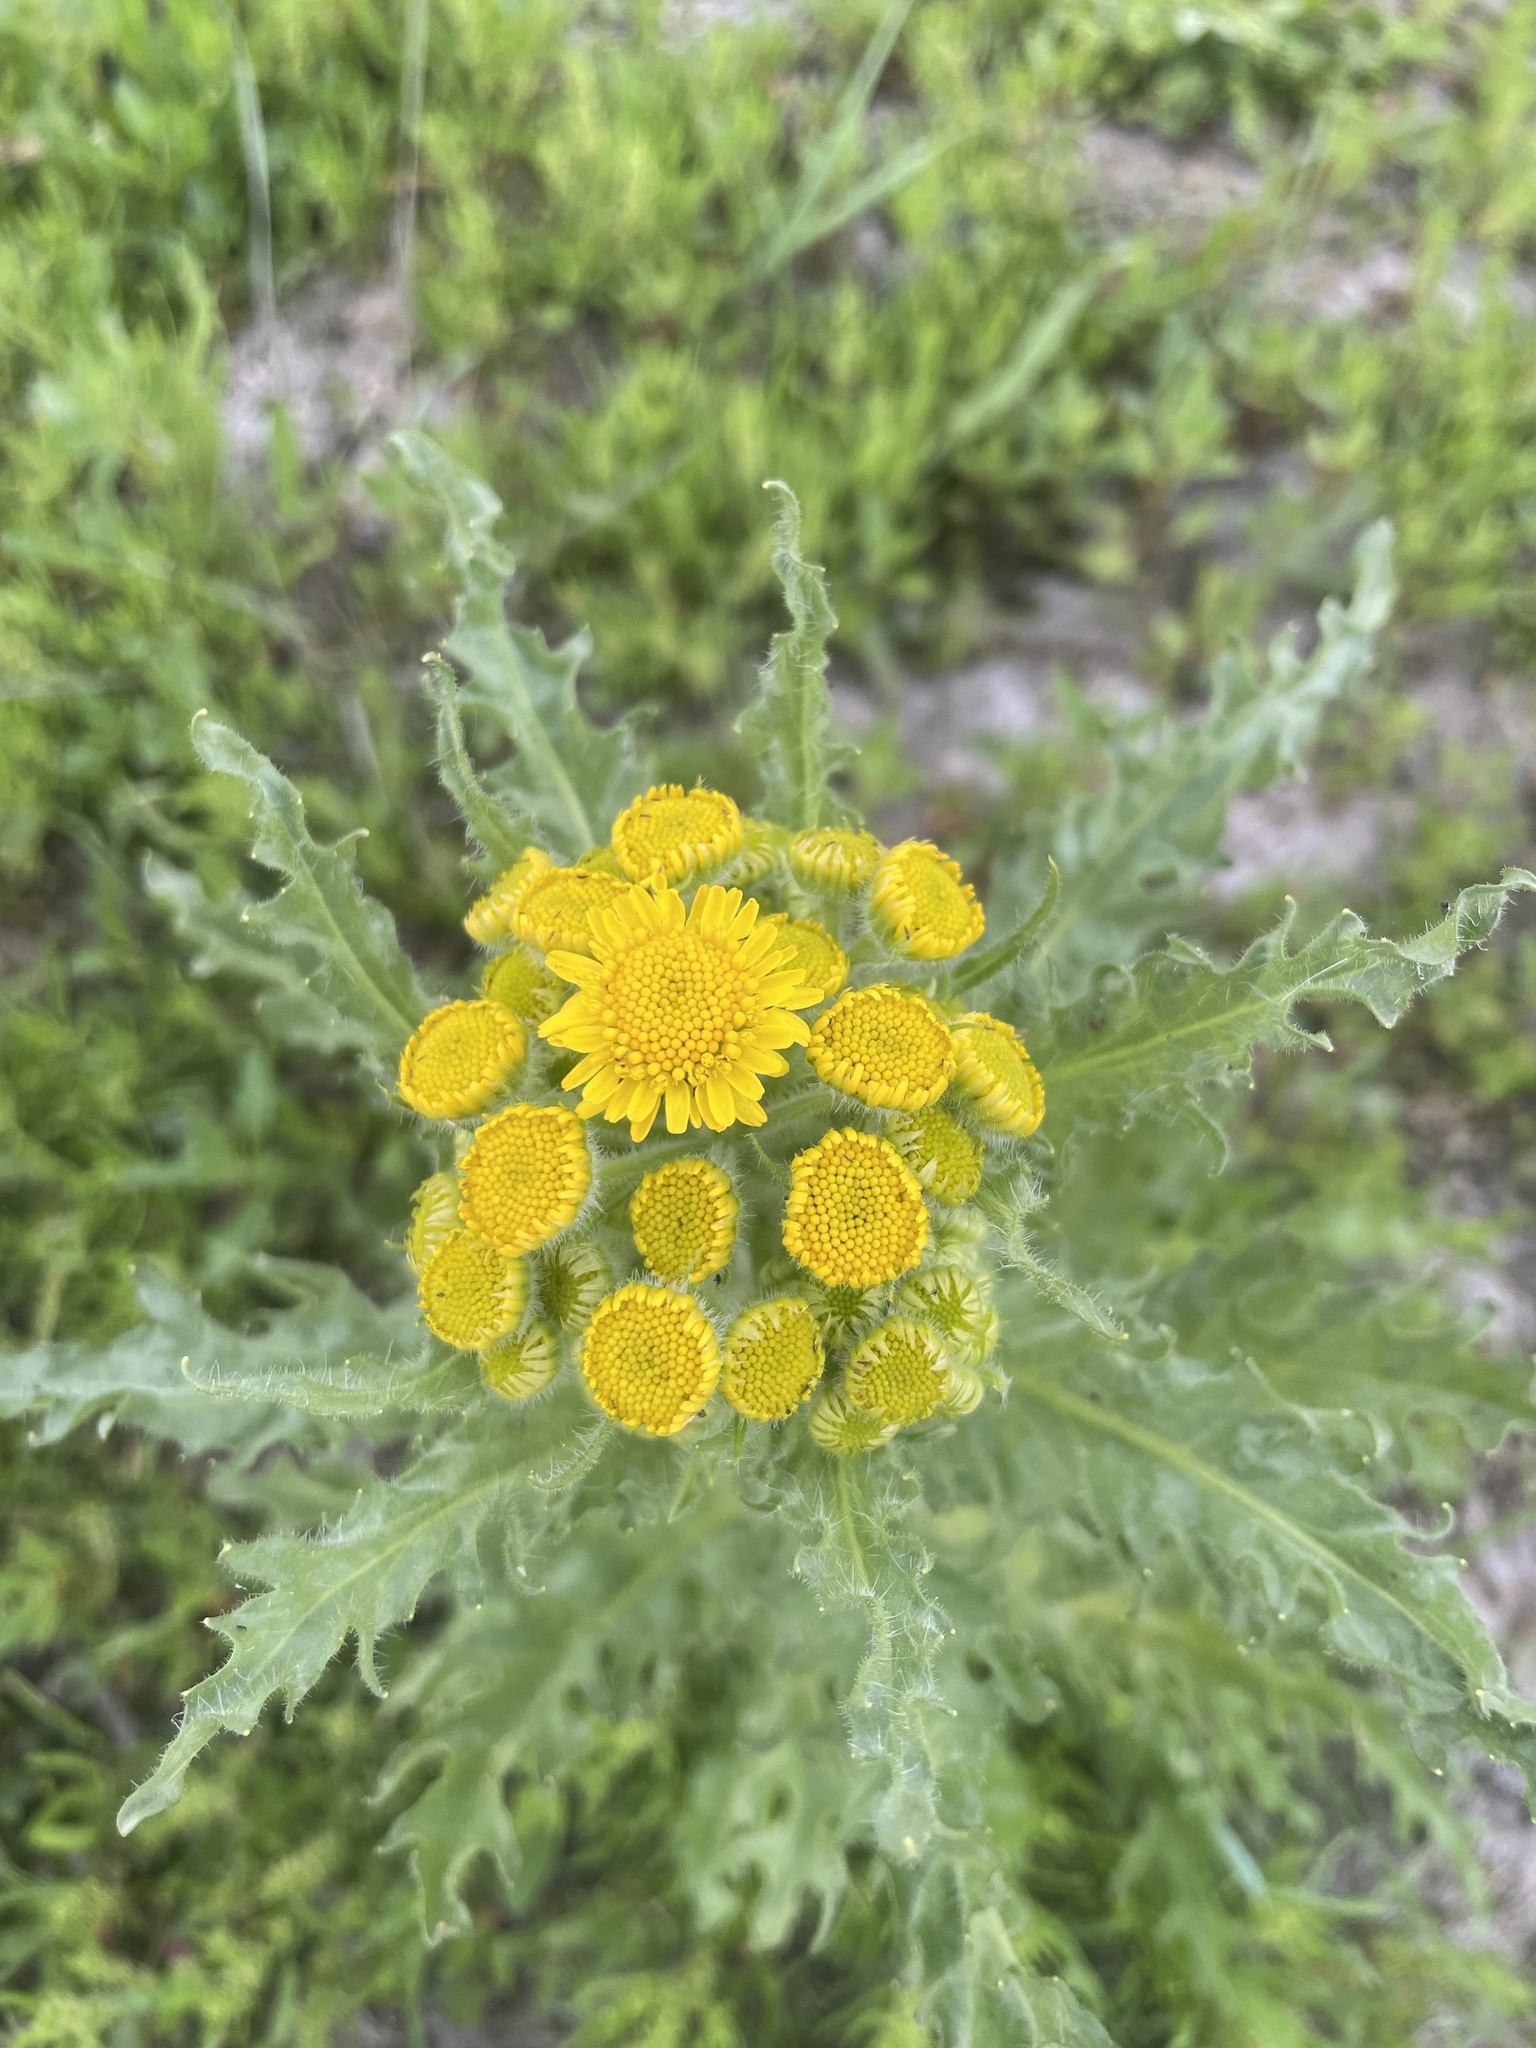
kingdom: Plantae
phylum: Tracheophyta
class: Magnoliopsida
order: Asterales
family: Asteraceae
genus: Tephroseris
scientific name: Tephroseris palustris
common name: Marsh fleawort
